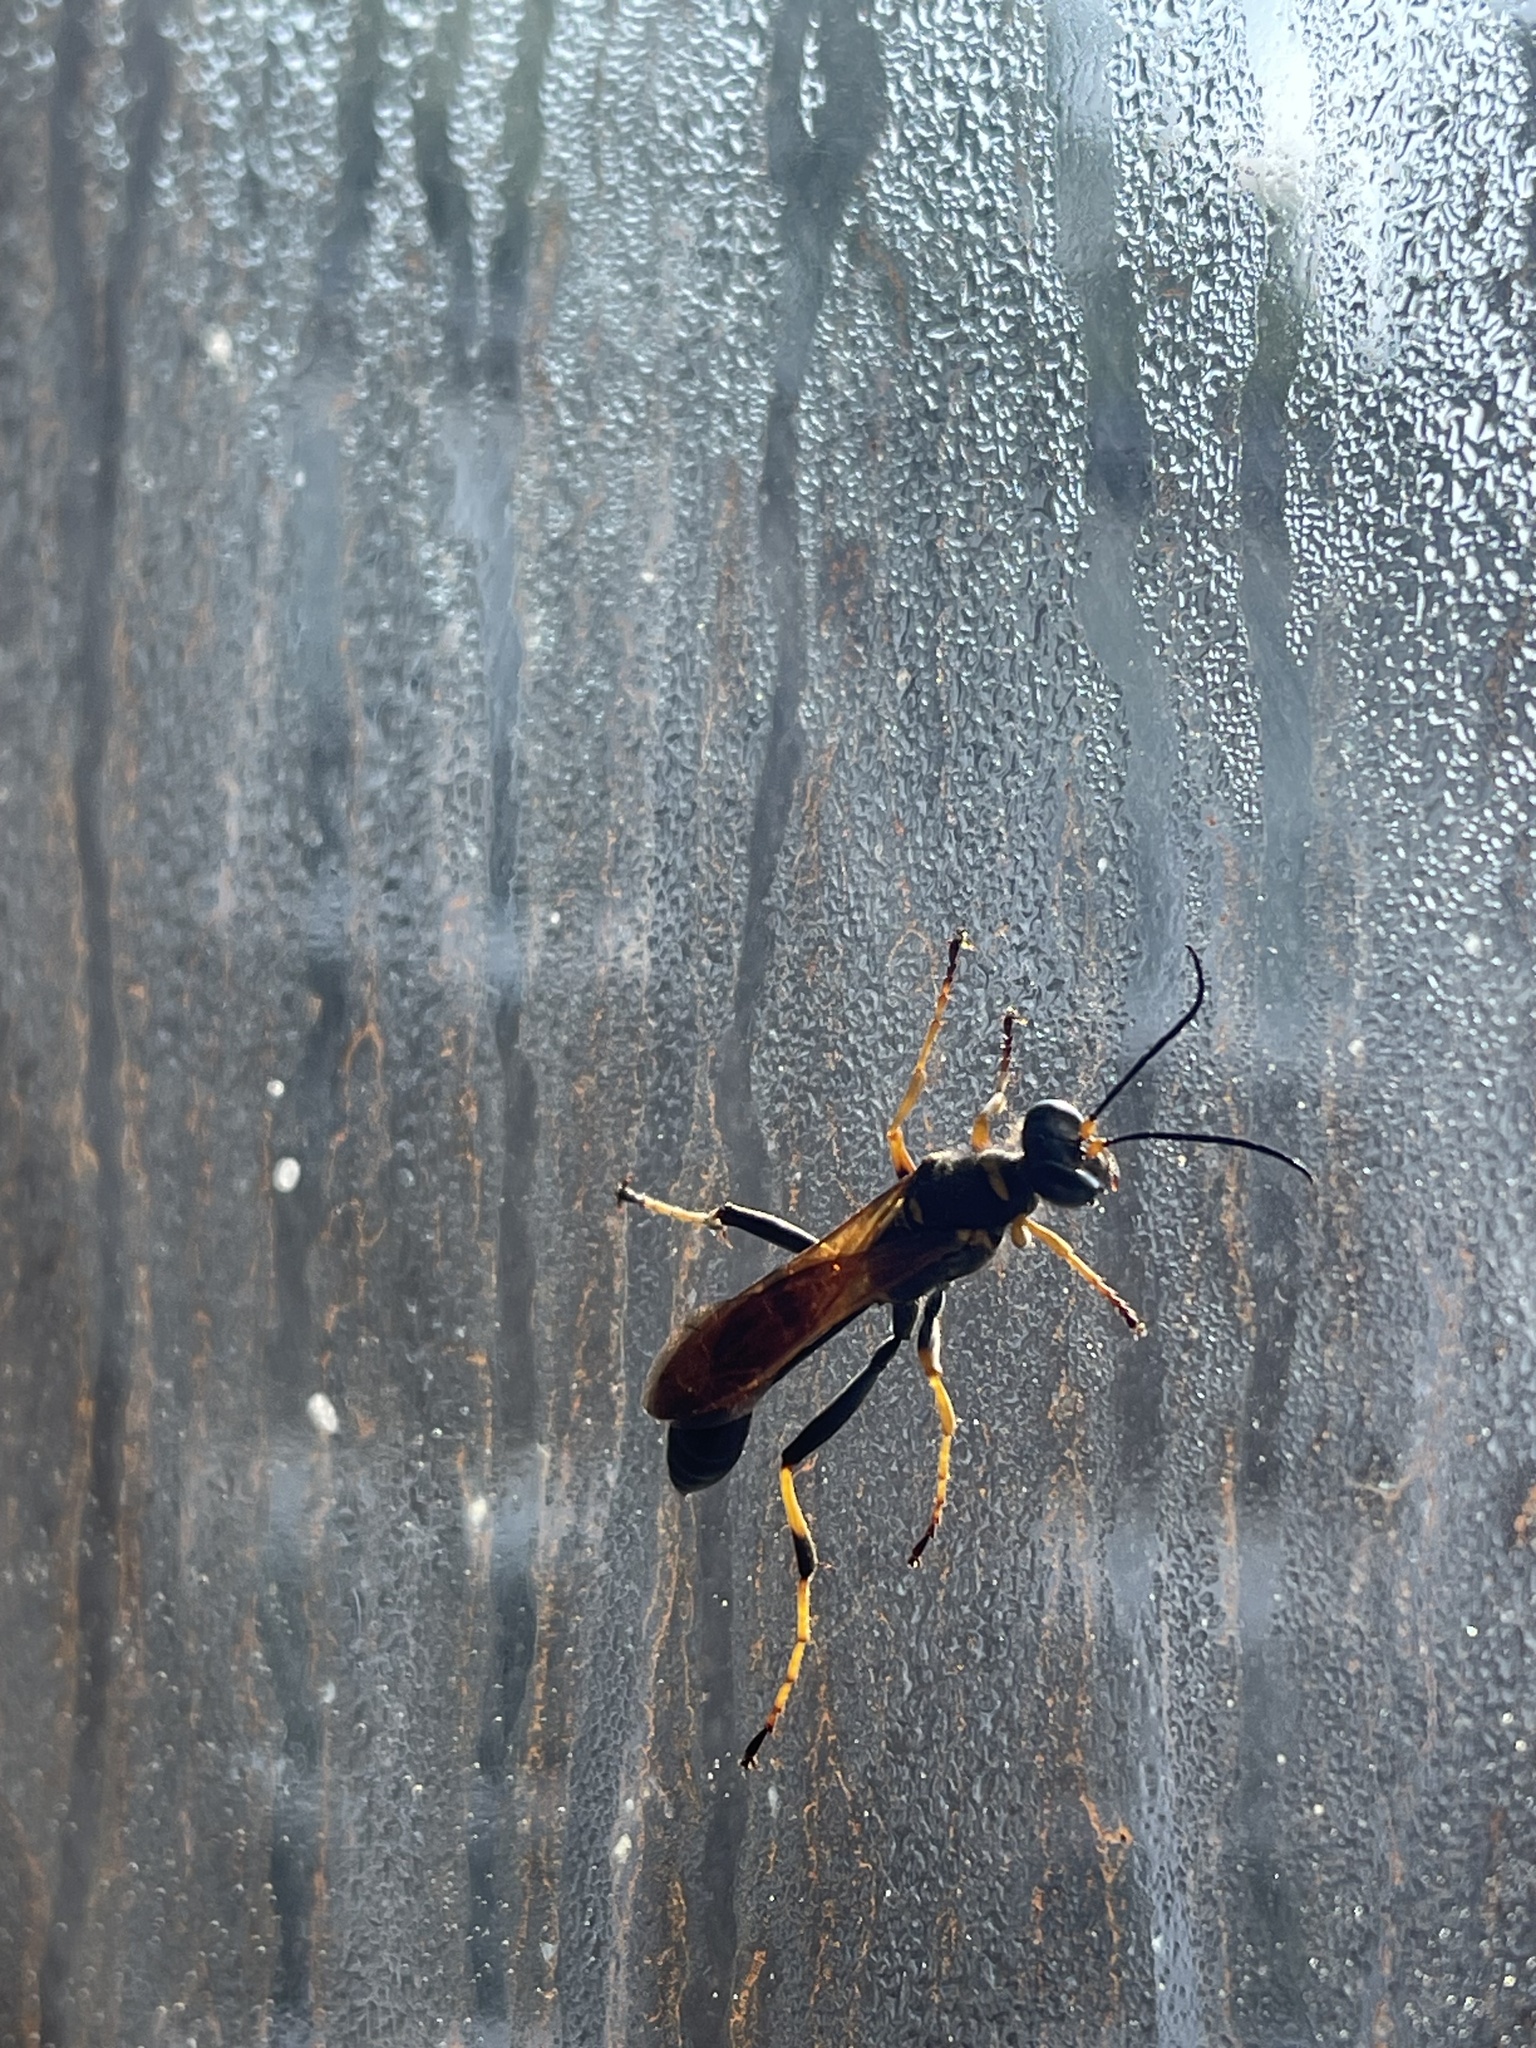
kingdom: Animalia
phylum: Arthropoda
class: Insecta
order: Hymenoptera
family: Sphecidae
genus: Sceliphron
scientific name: Sceliphron caementarium
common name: Mud dauber
